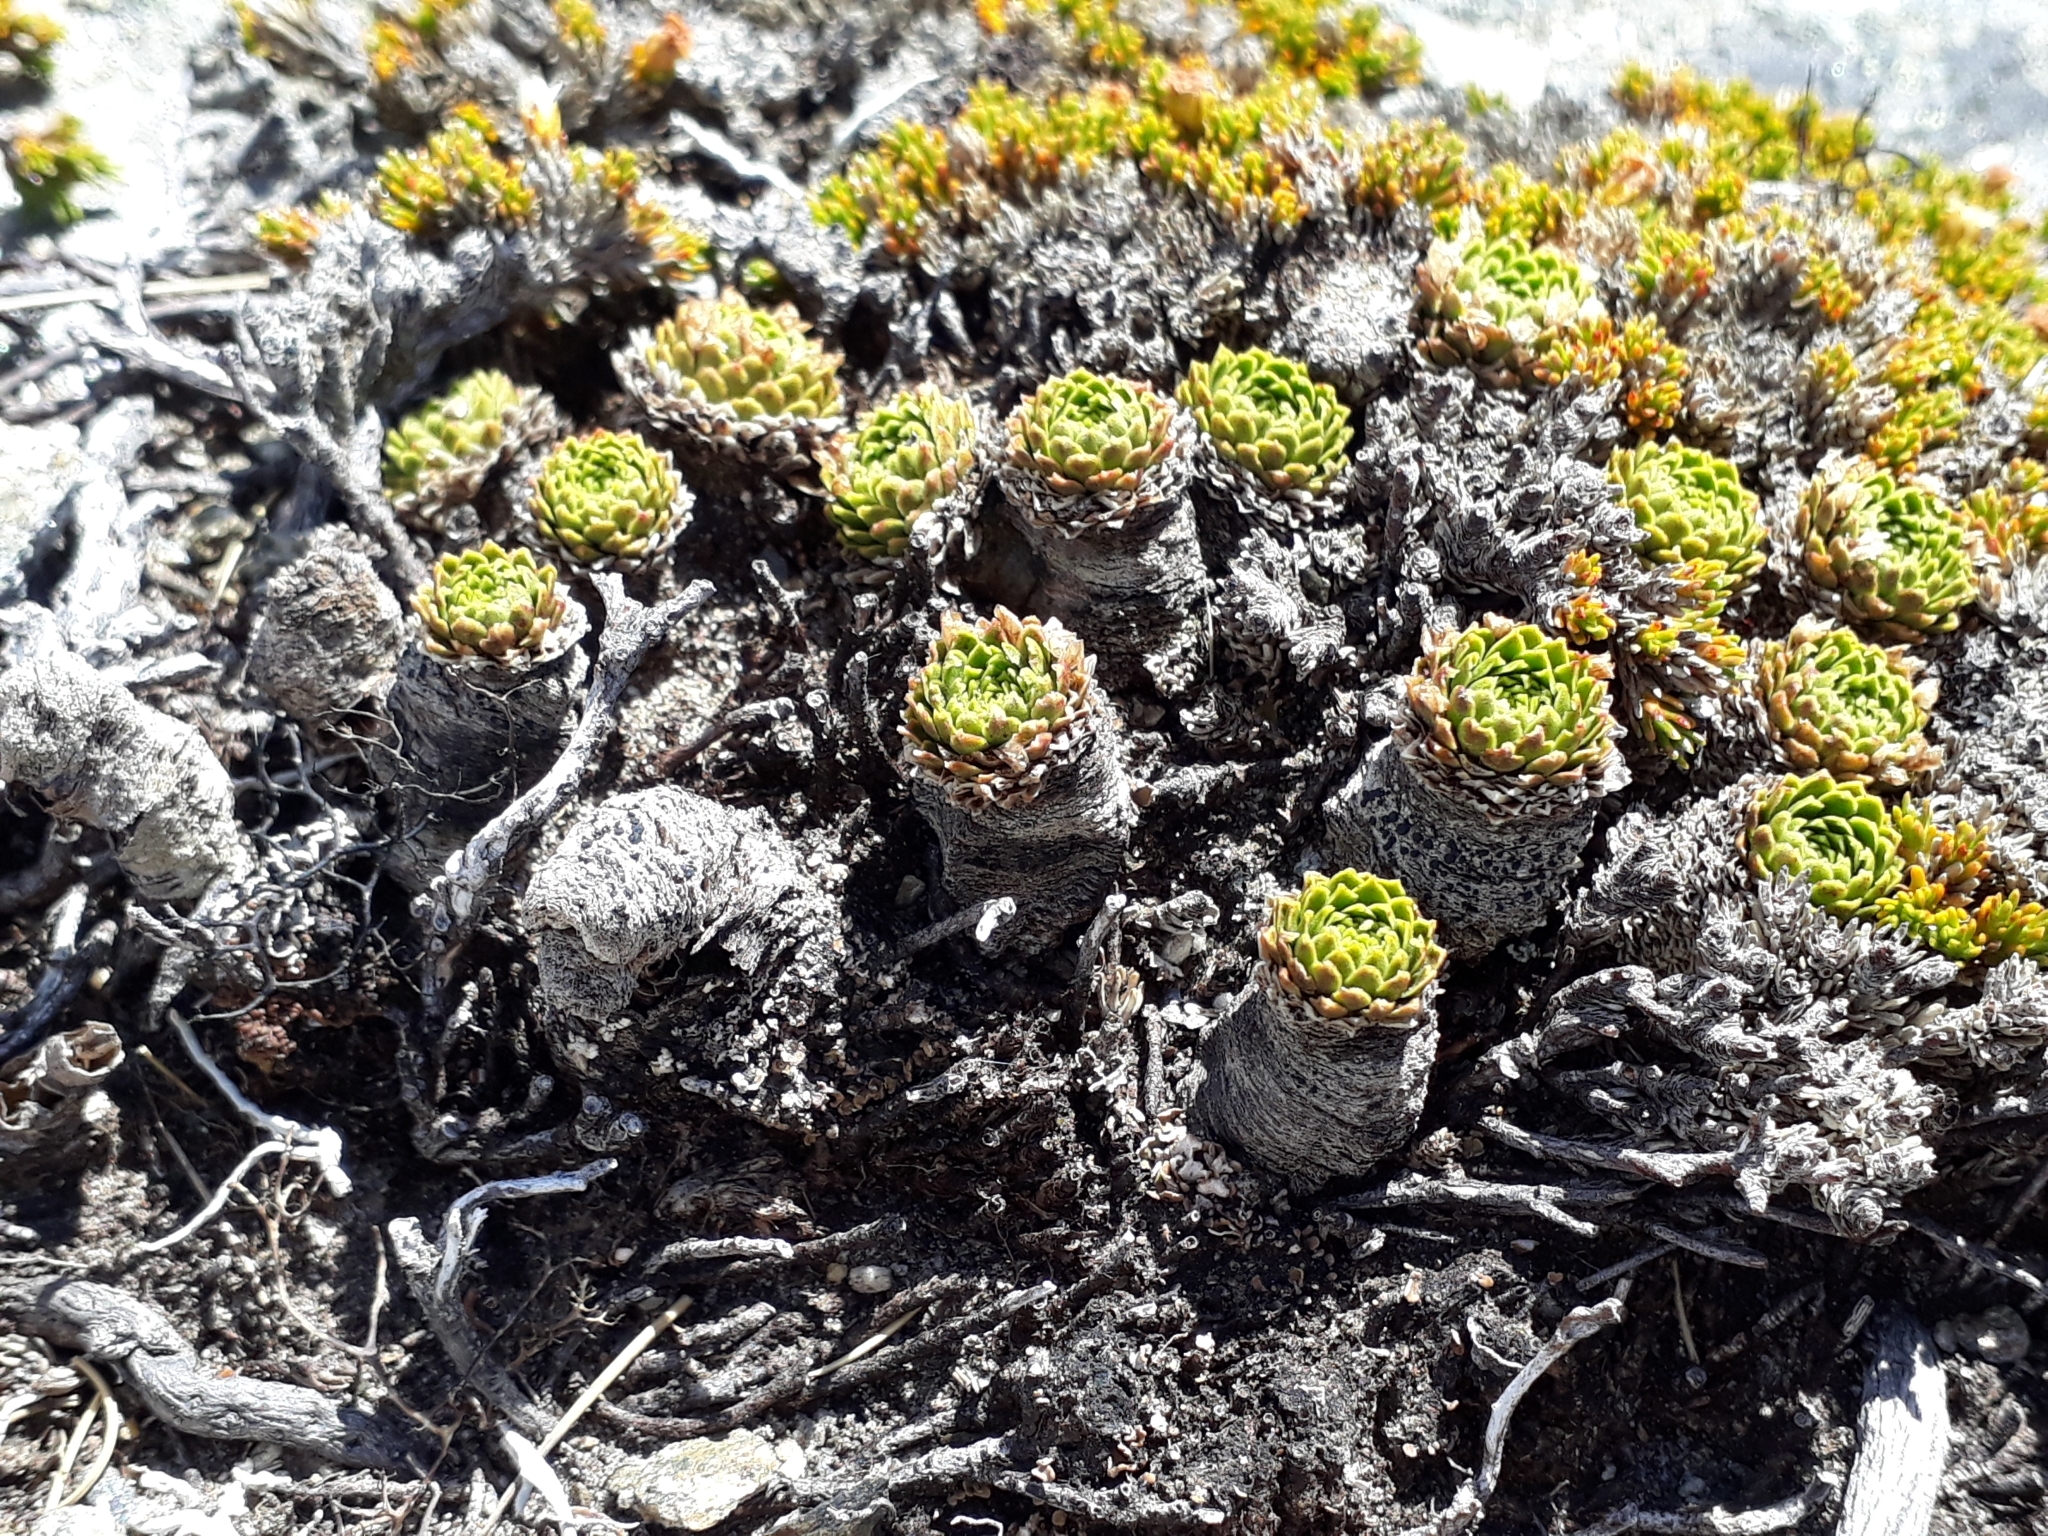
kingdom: Plantae
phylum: Tracheophyta
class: Magnoliopsida
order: Caryophyllales
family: Montiaceae
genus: Hectorella
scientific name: Hectorella caespitosa
